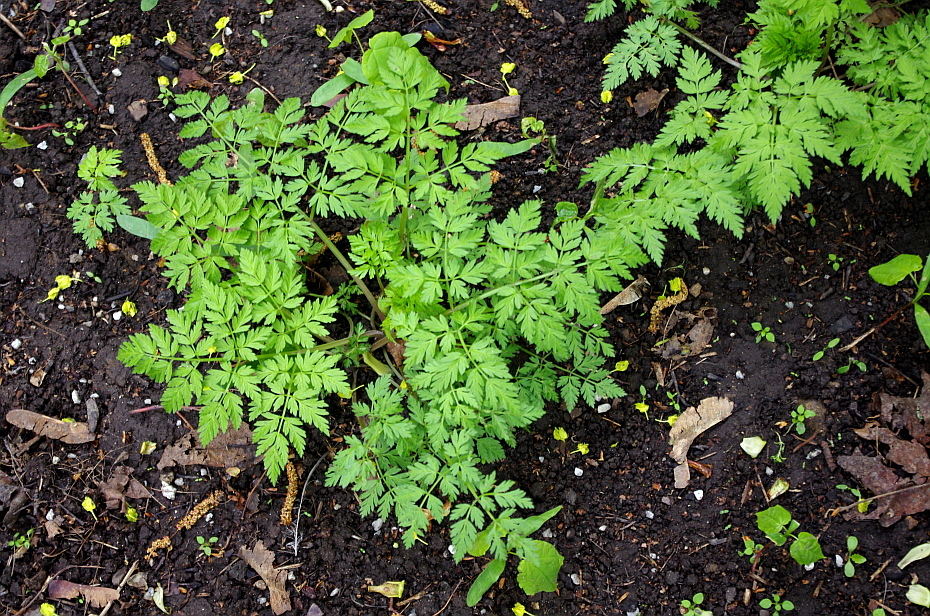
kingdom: Plantae
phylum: Tracheophyta
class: Magnoliopsida
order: Apiales
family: Apiaceae
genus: Anthriscus
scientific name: Anthriscus sylvestris
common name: Cow parsley
